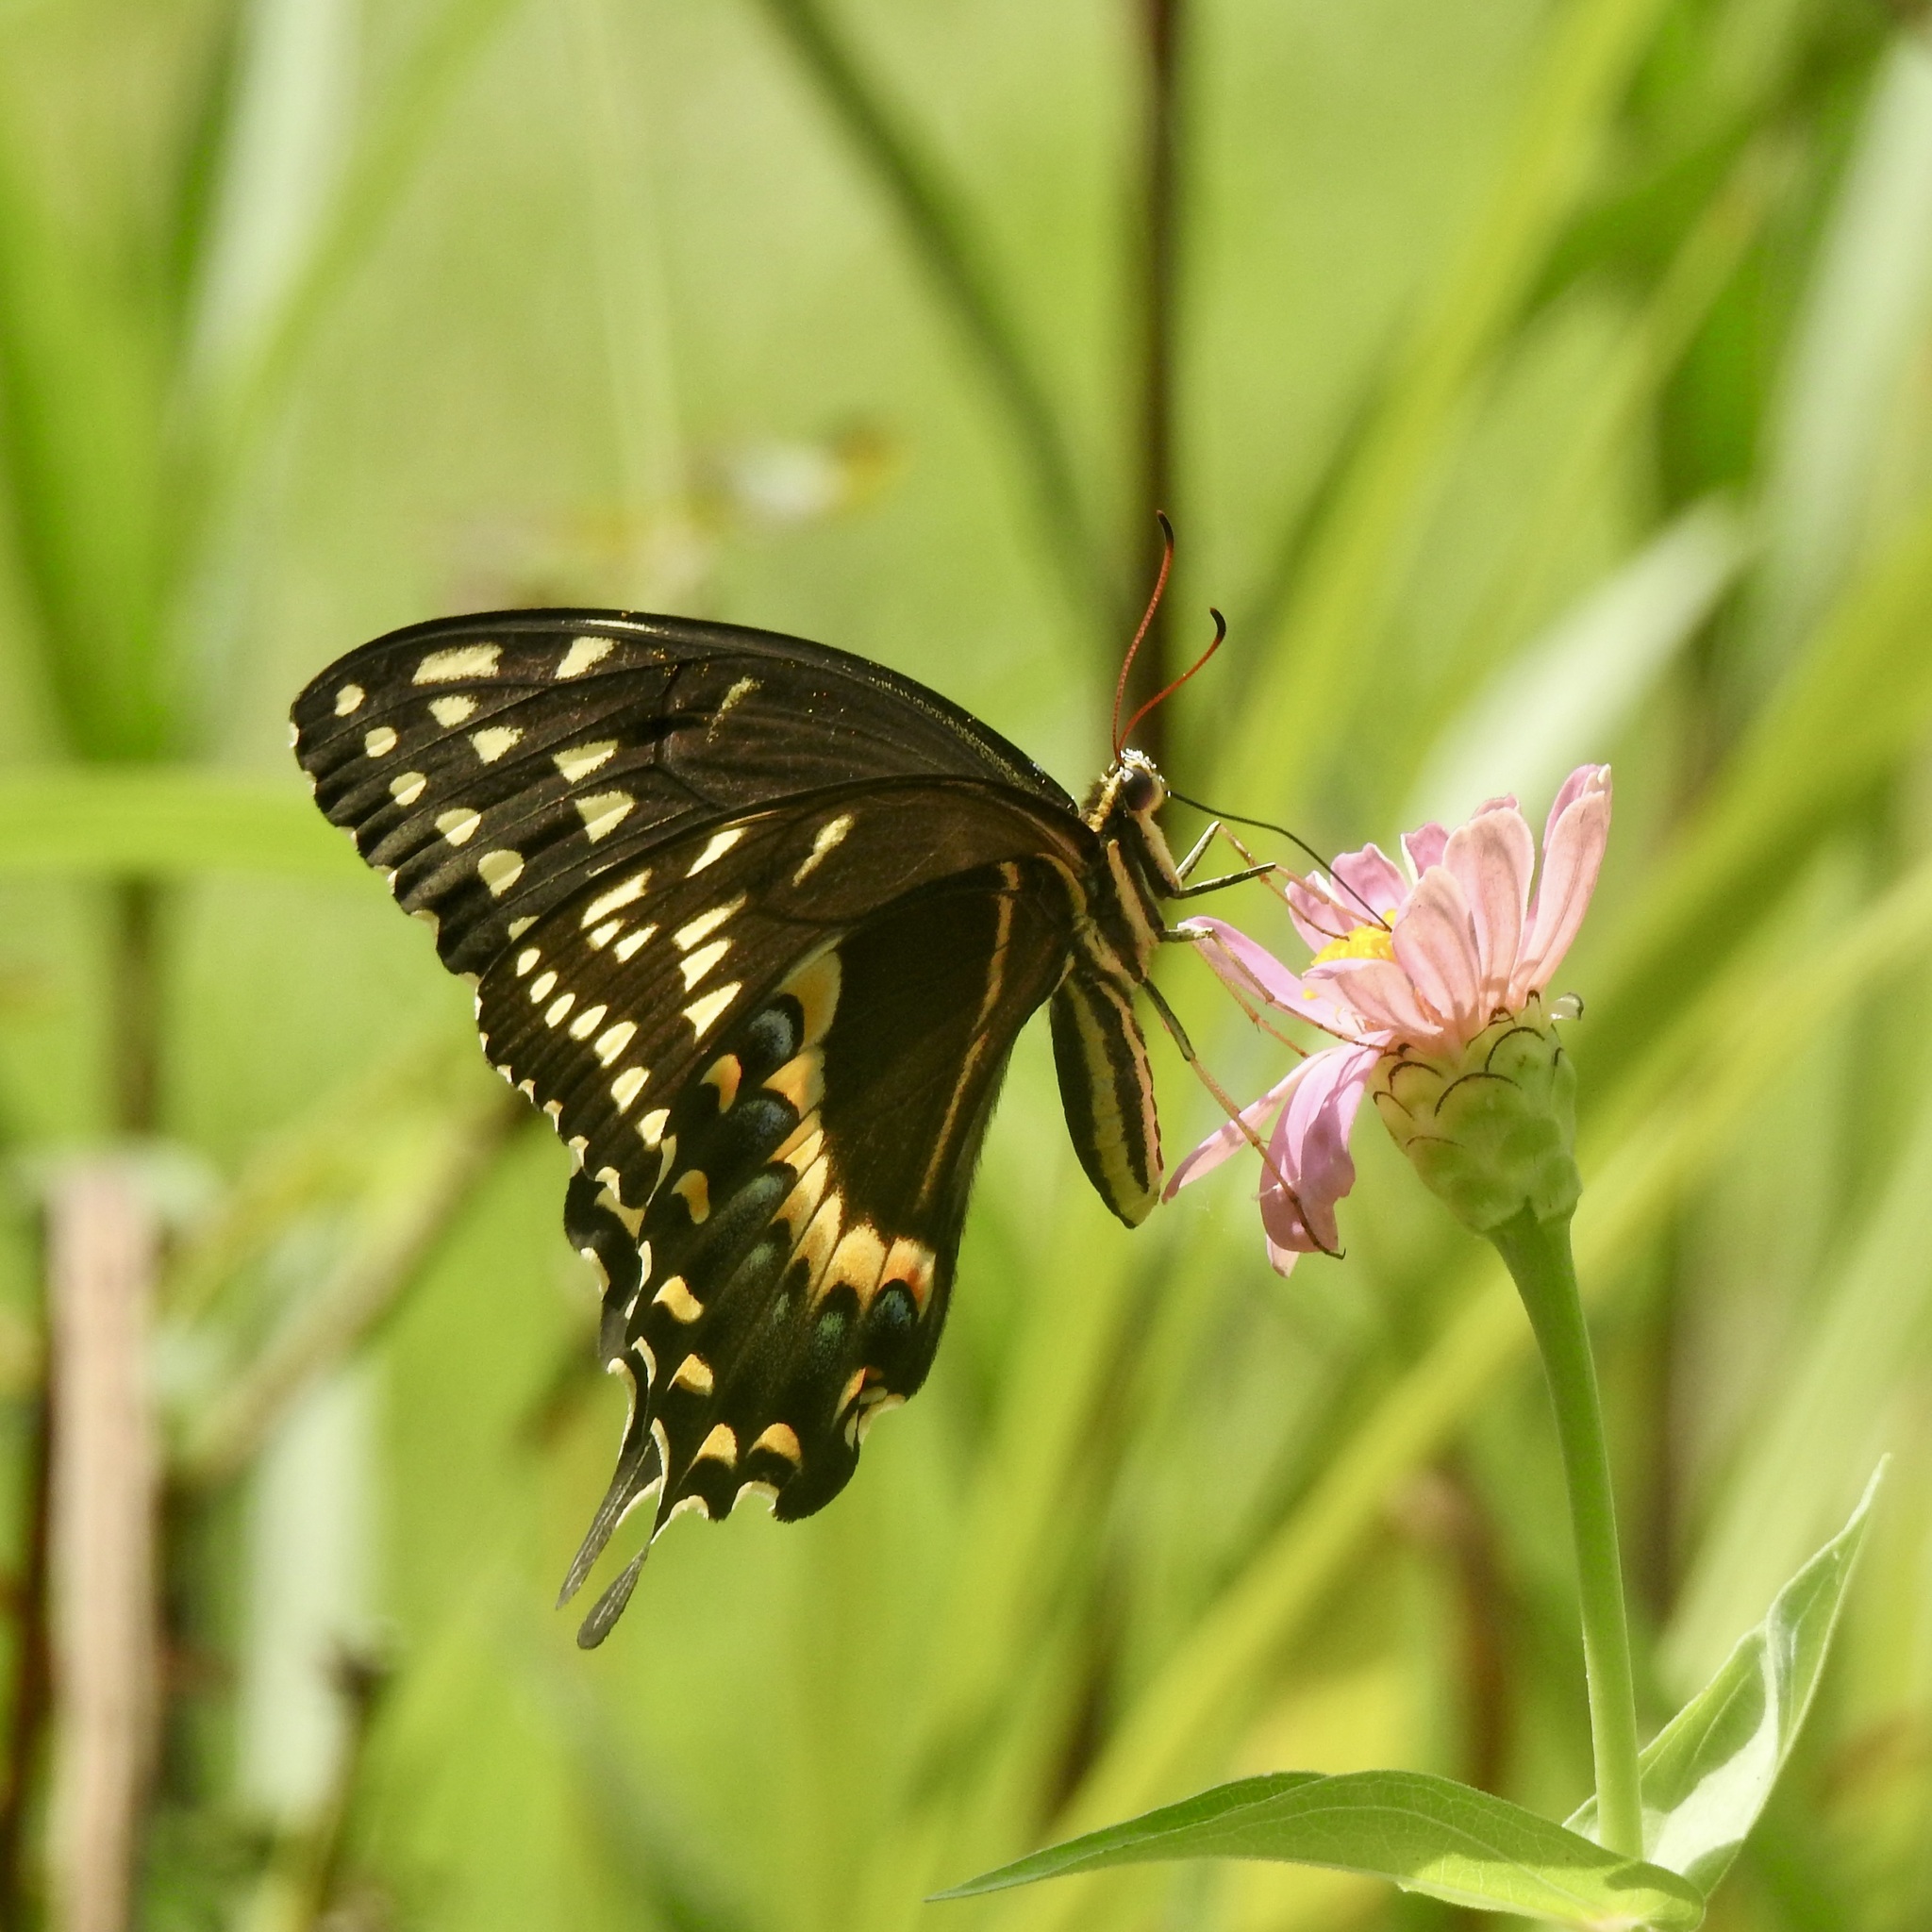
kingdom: Animalia
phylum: Arthropoda
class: Insecta
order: Lepidoptera
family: Papilionidae
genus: Papilio
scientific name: Papilio palamedes
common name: Palamedes swallowtail
